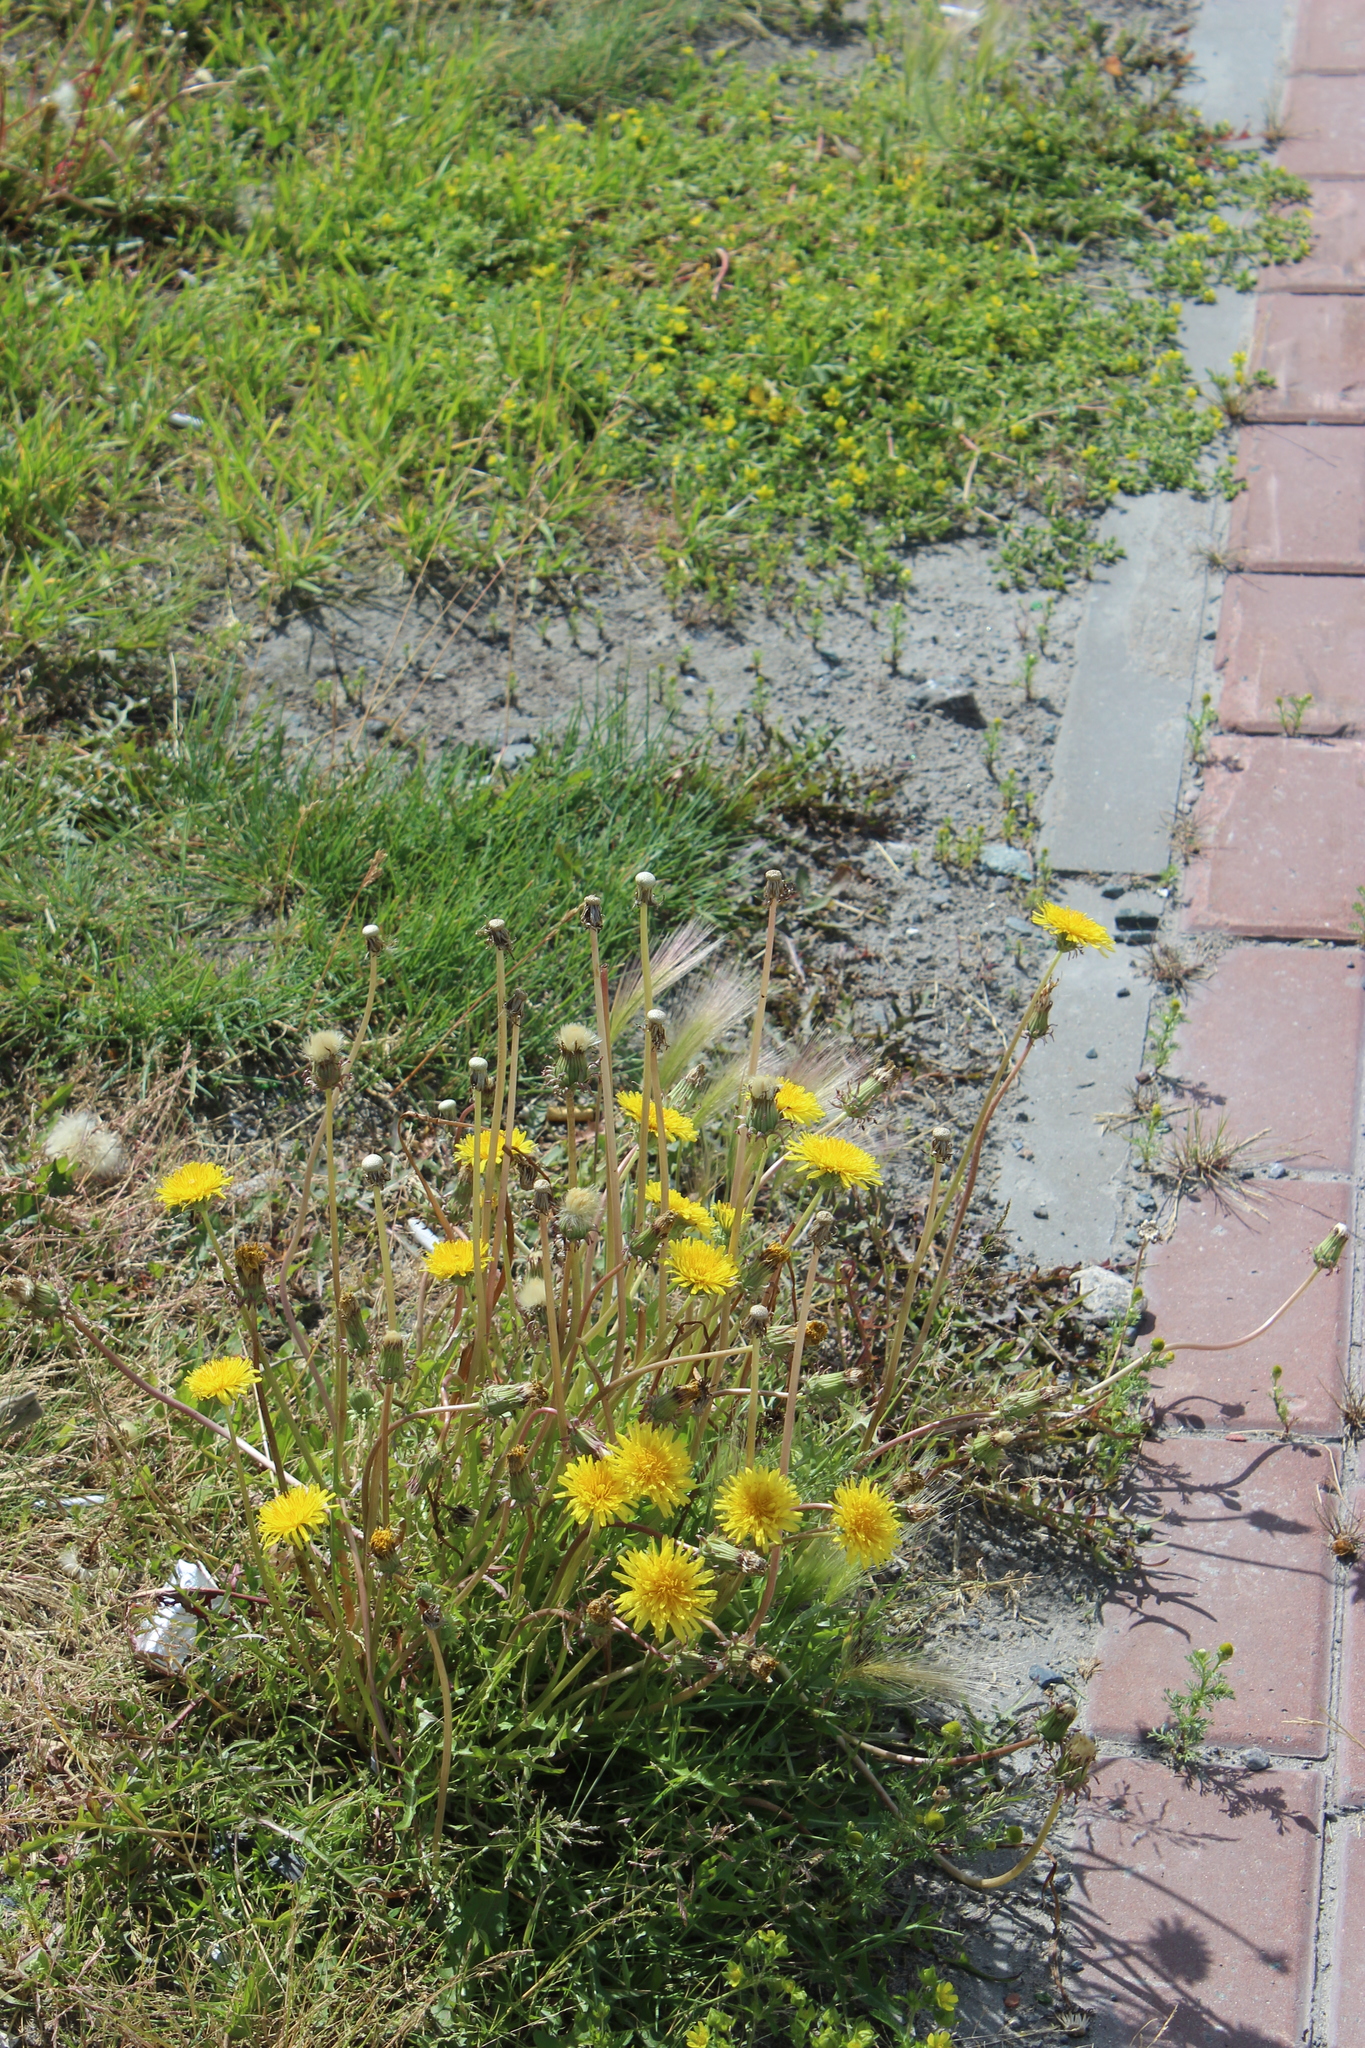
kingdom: Plantae
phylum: Tracheophyta
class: Magnoliopsida
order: Asterales
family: Asteraceae
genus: Taraxacum
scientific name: Taraxacum scariosum
